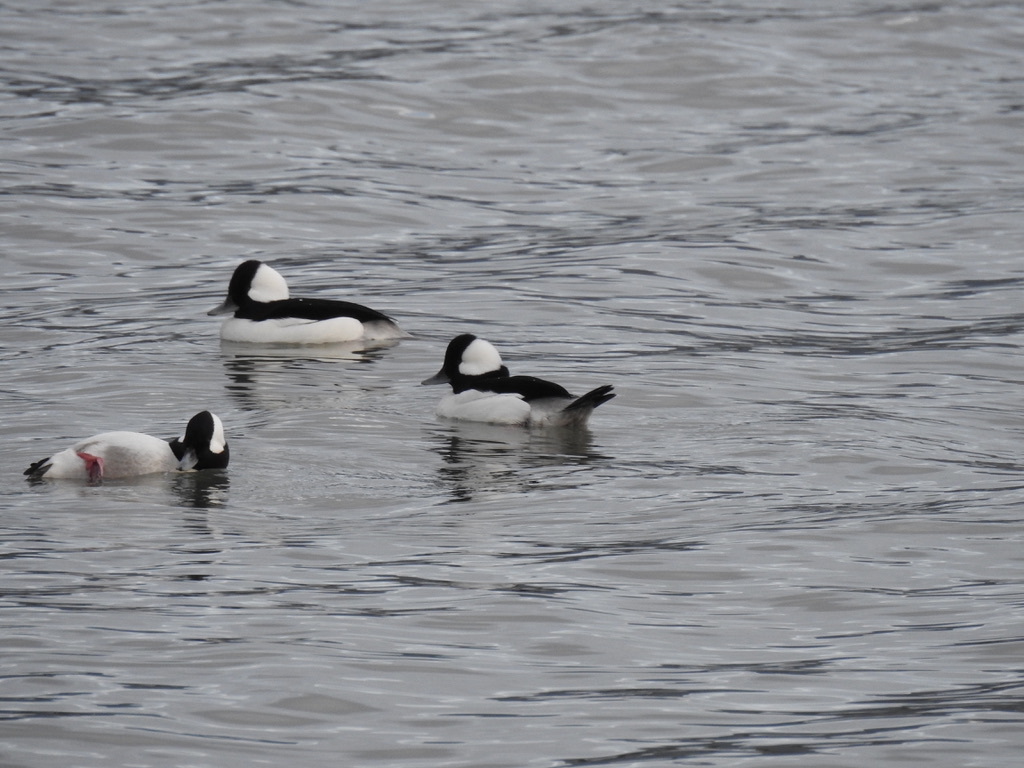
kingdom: Animalia
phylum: Chordata
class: Aves
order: Anseriformes
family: Anatidae
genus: Bucephala
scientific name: Bucephala albeola
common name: Bufflehead
